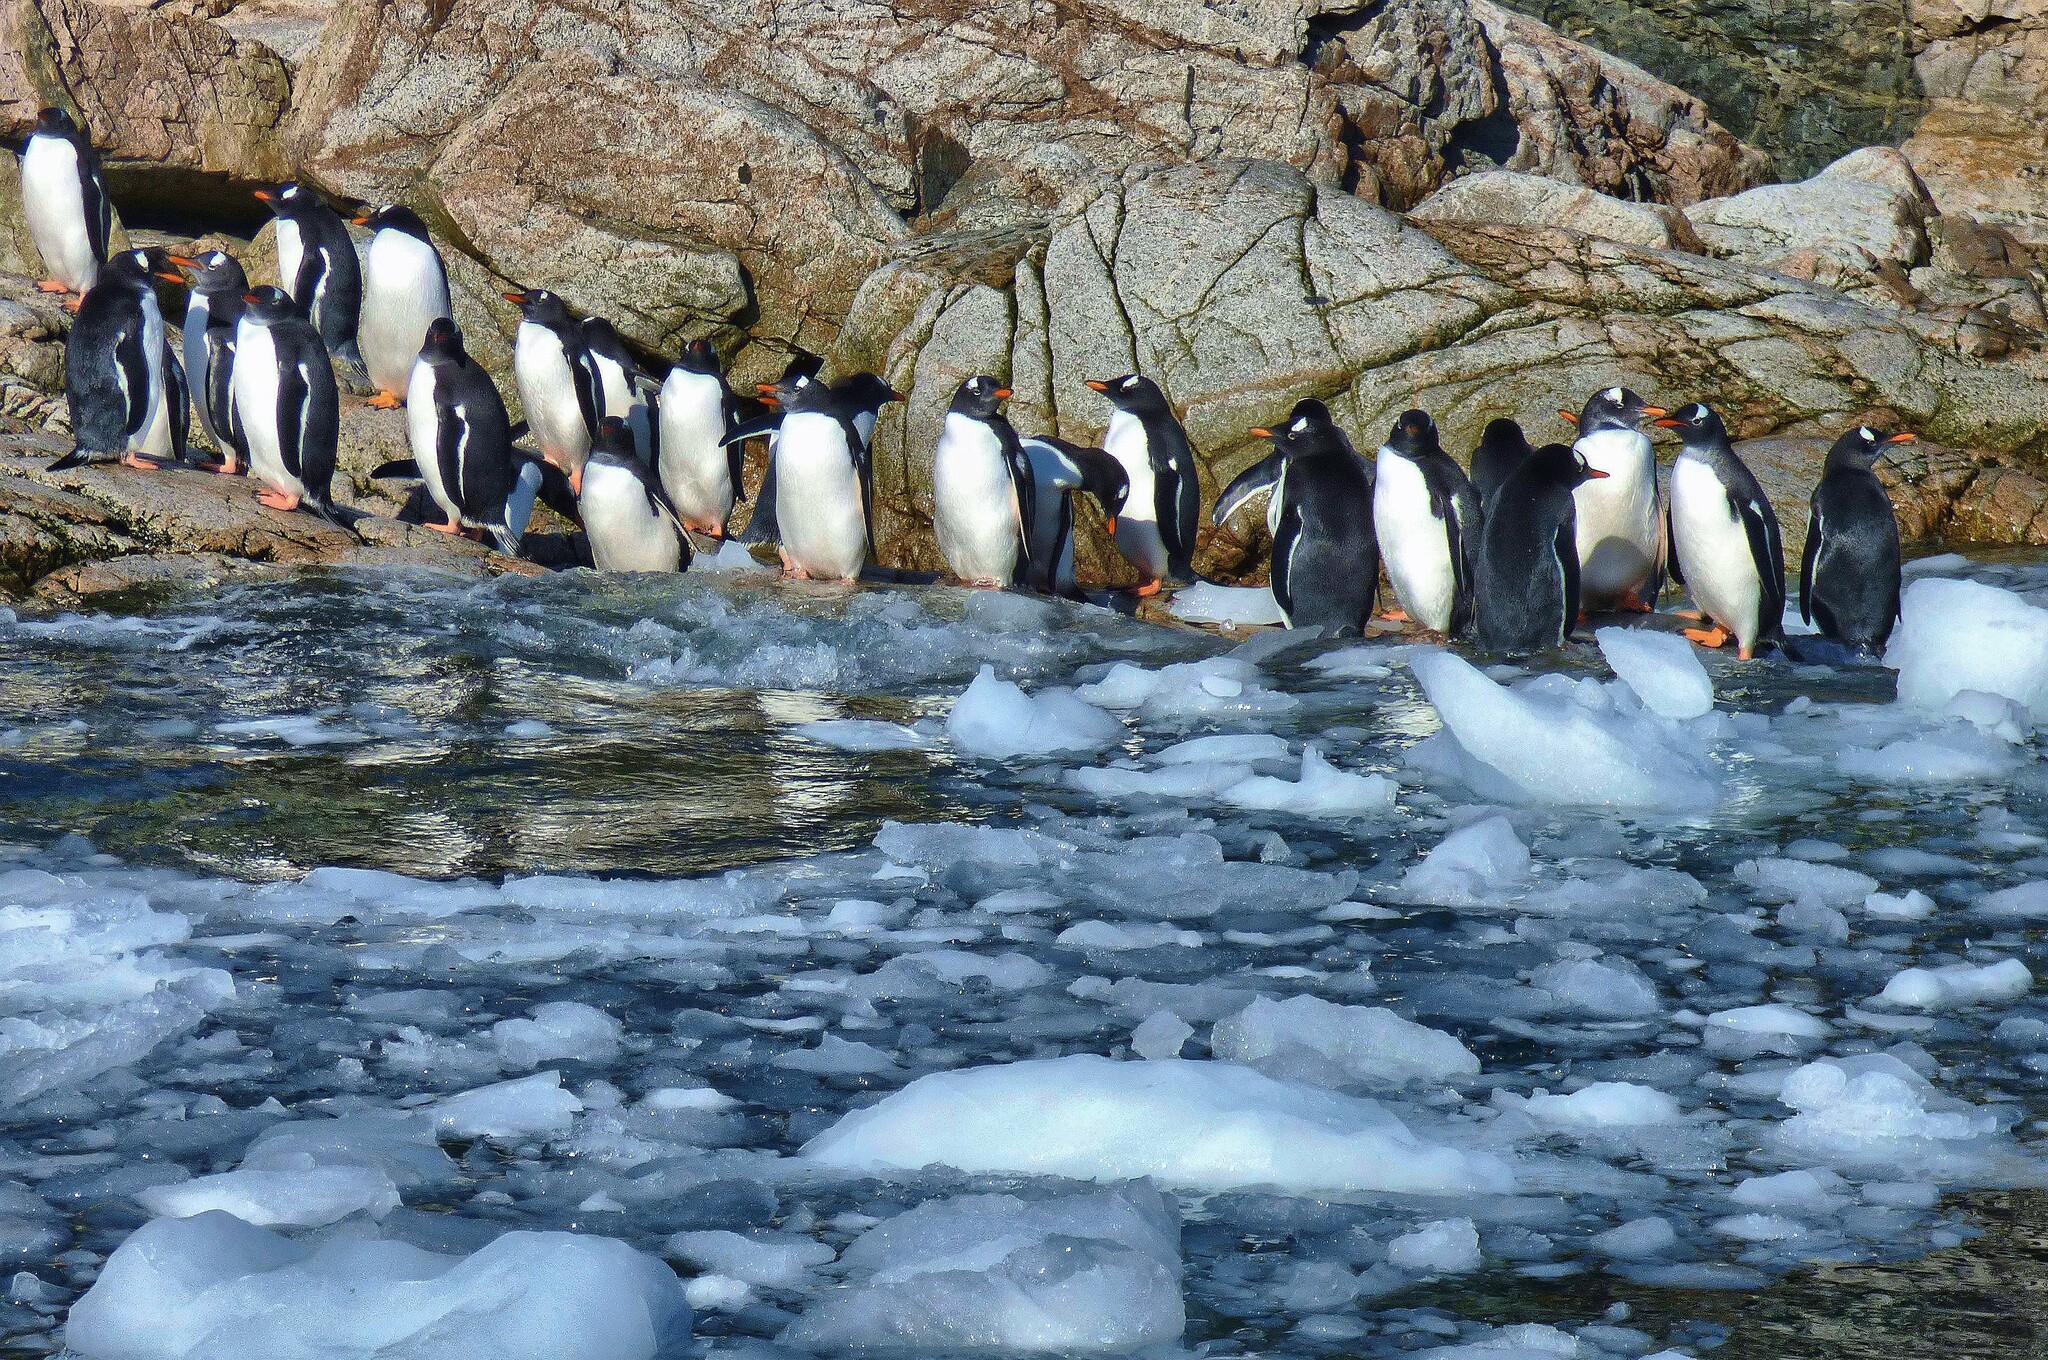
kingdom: Animalia
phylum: Chordata
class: Aves
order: Sphenisciformes
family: Spheniscidae
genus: Pygoscelis
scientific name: Pygoscelis papua
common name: Gentoo penguin
